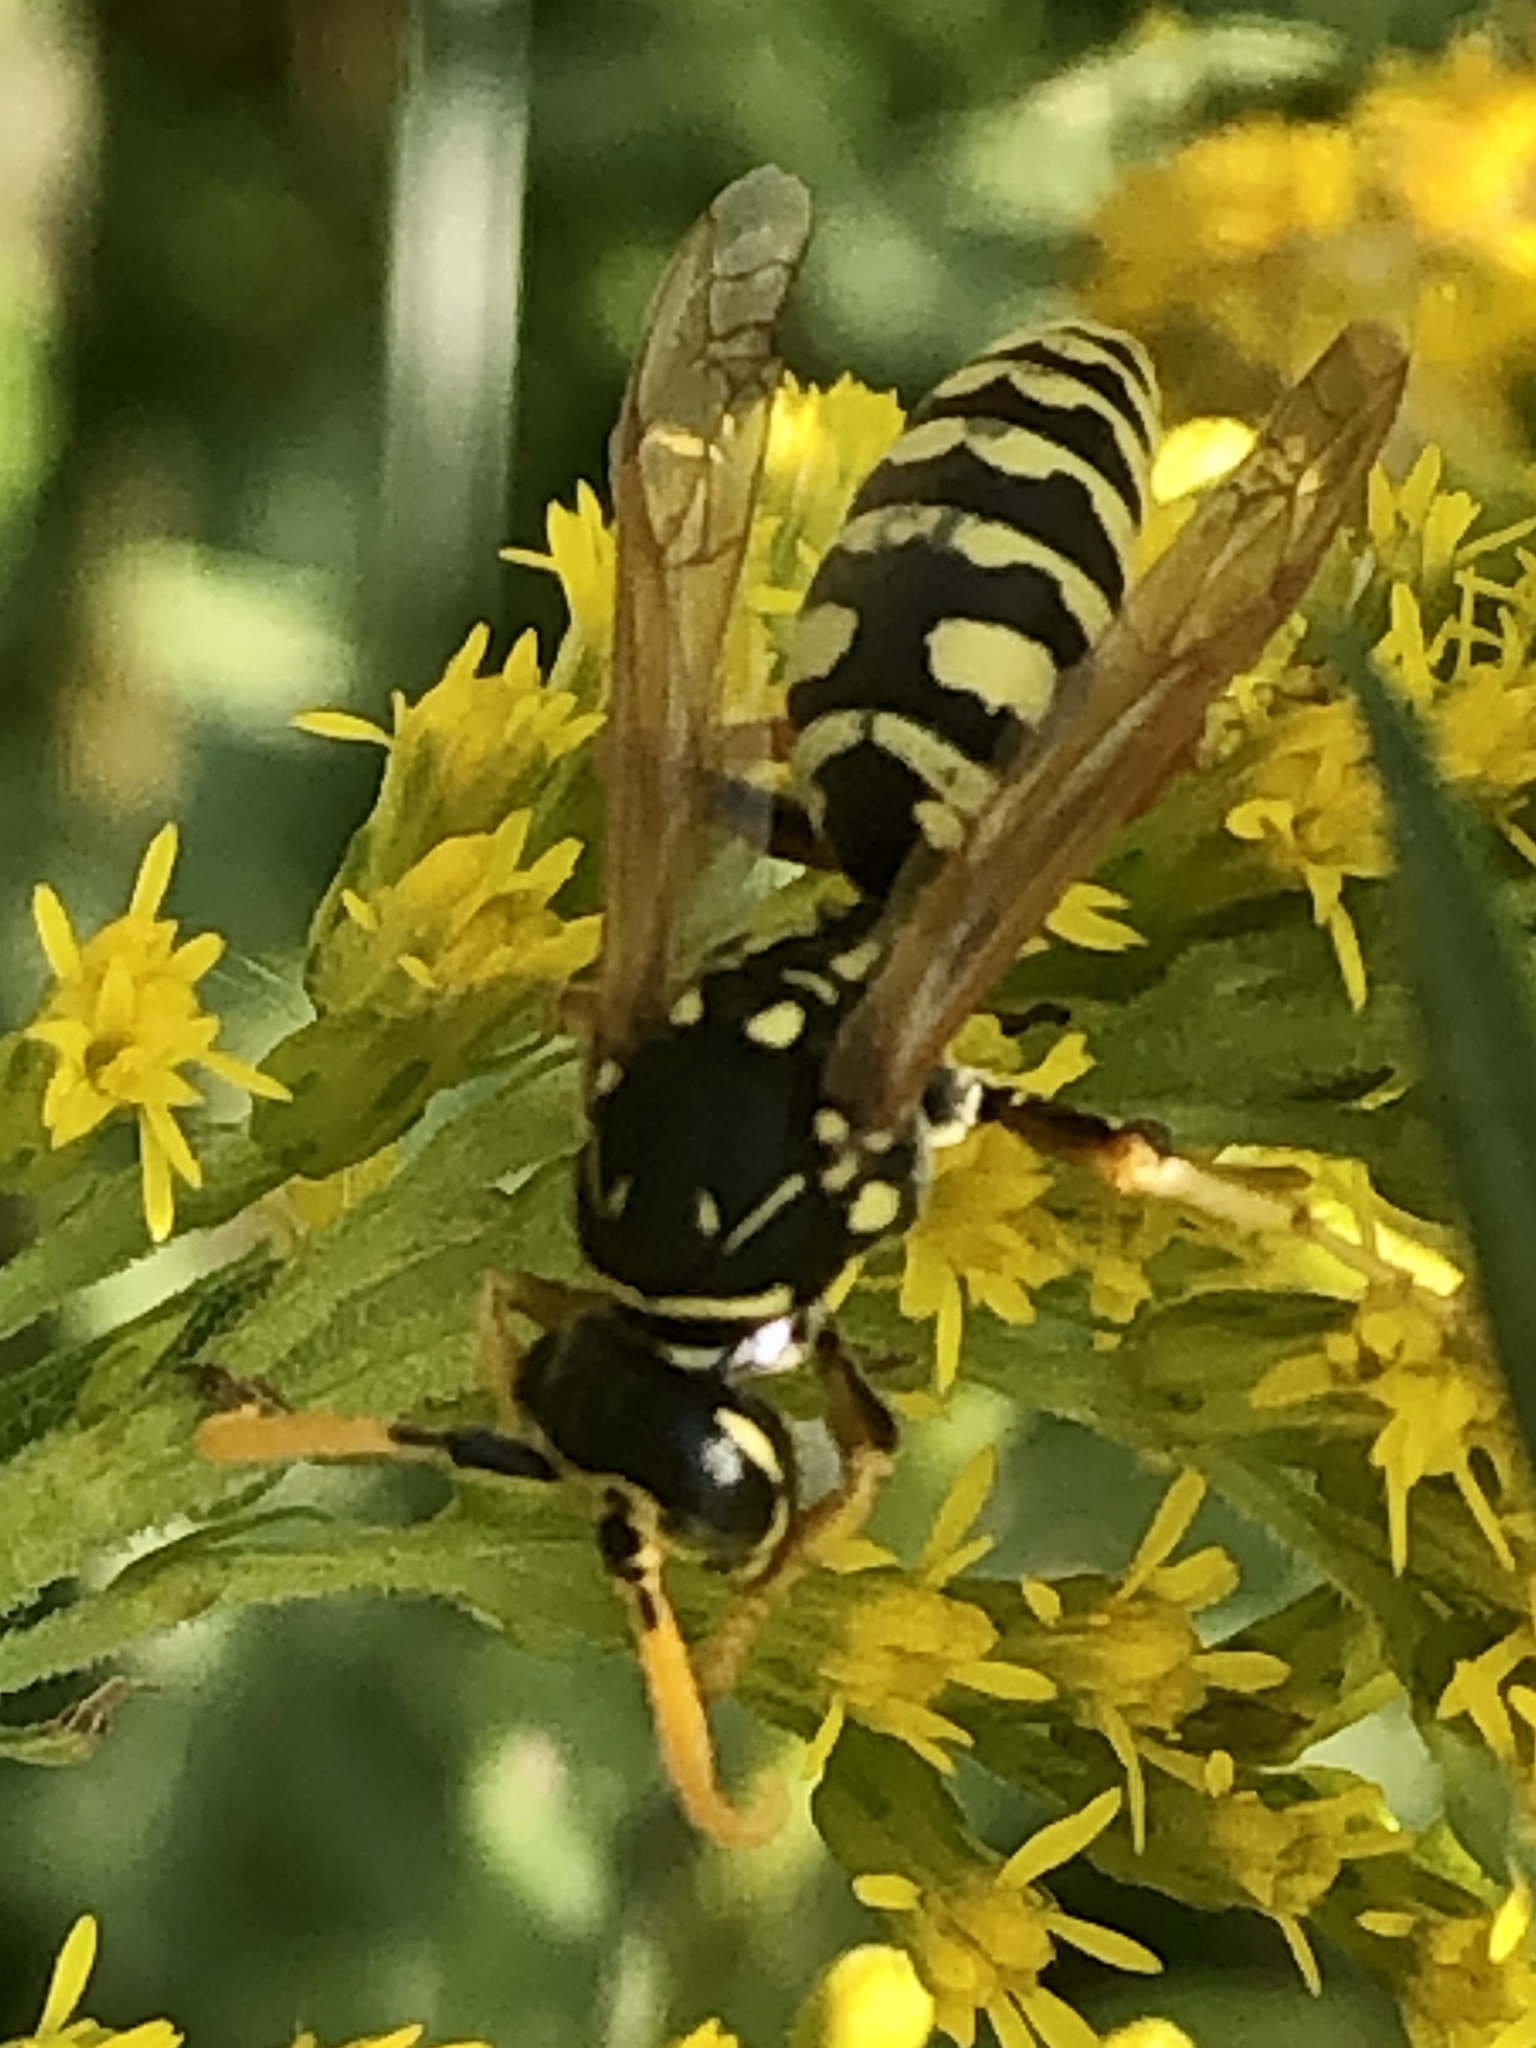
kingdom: Animalia
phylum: Arthropoda
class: Insecta
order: Hymenoptera
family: Eumenidae
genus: Polistes
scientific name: Polistes dominula
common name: Paper wasp
